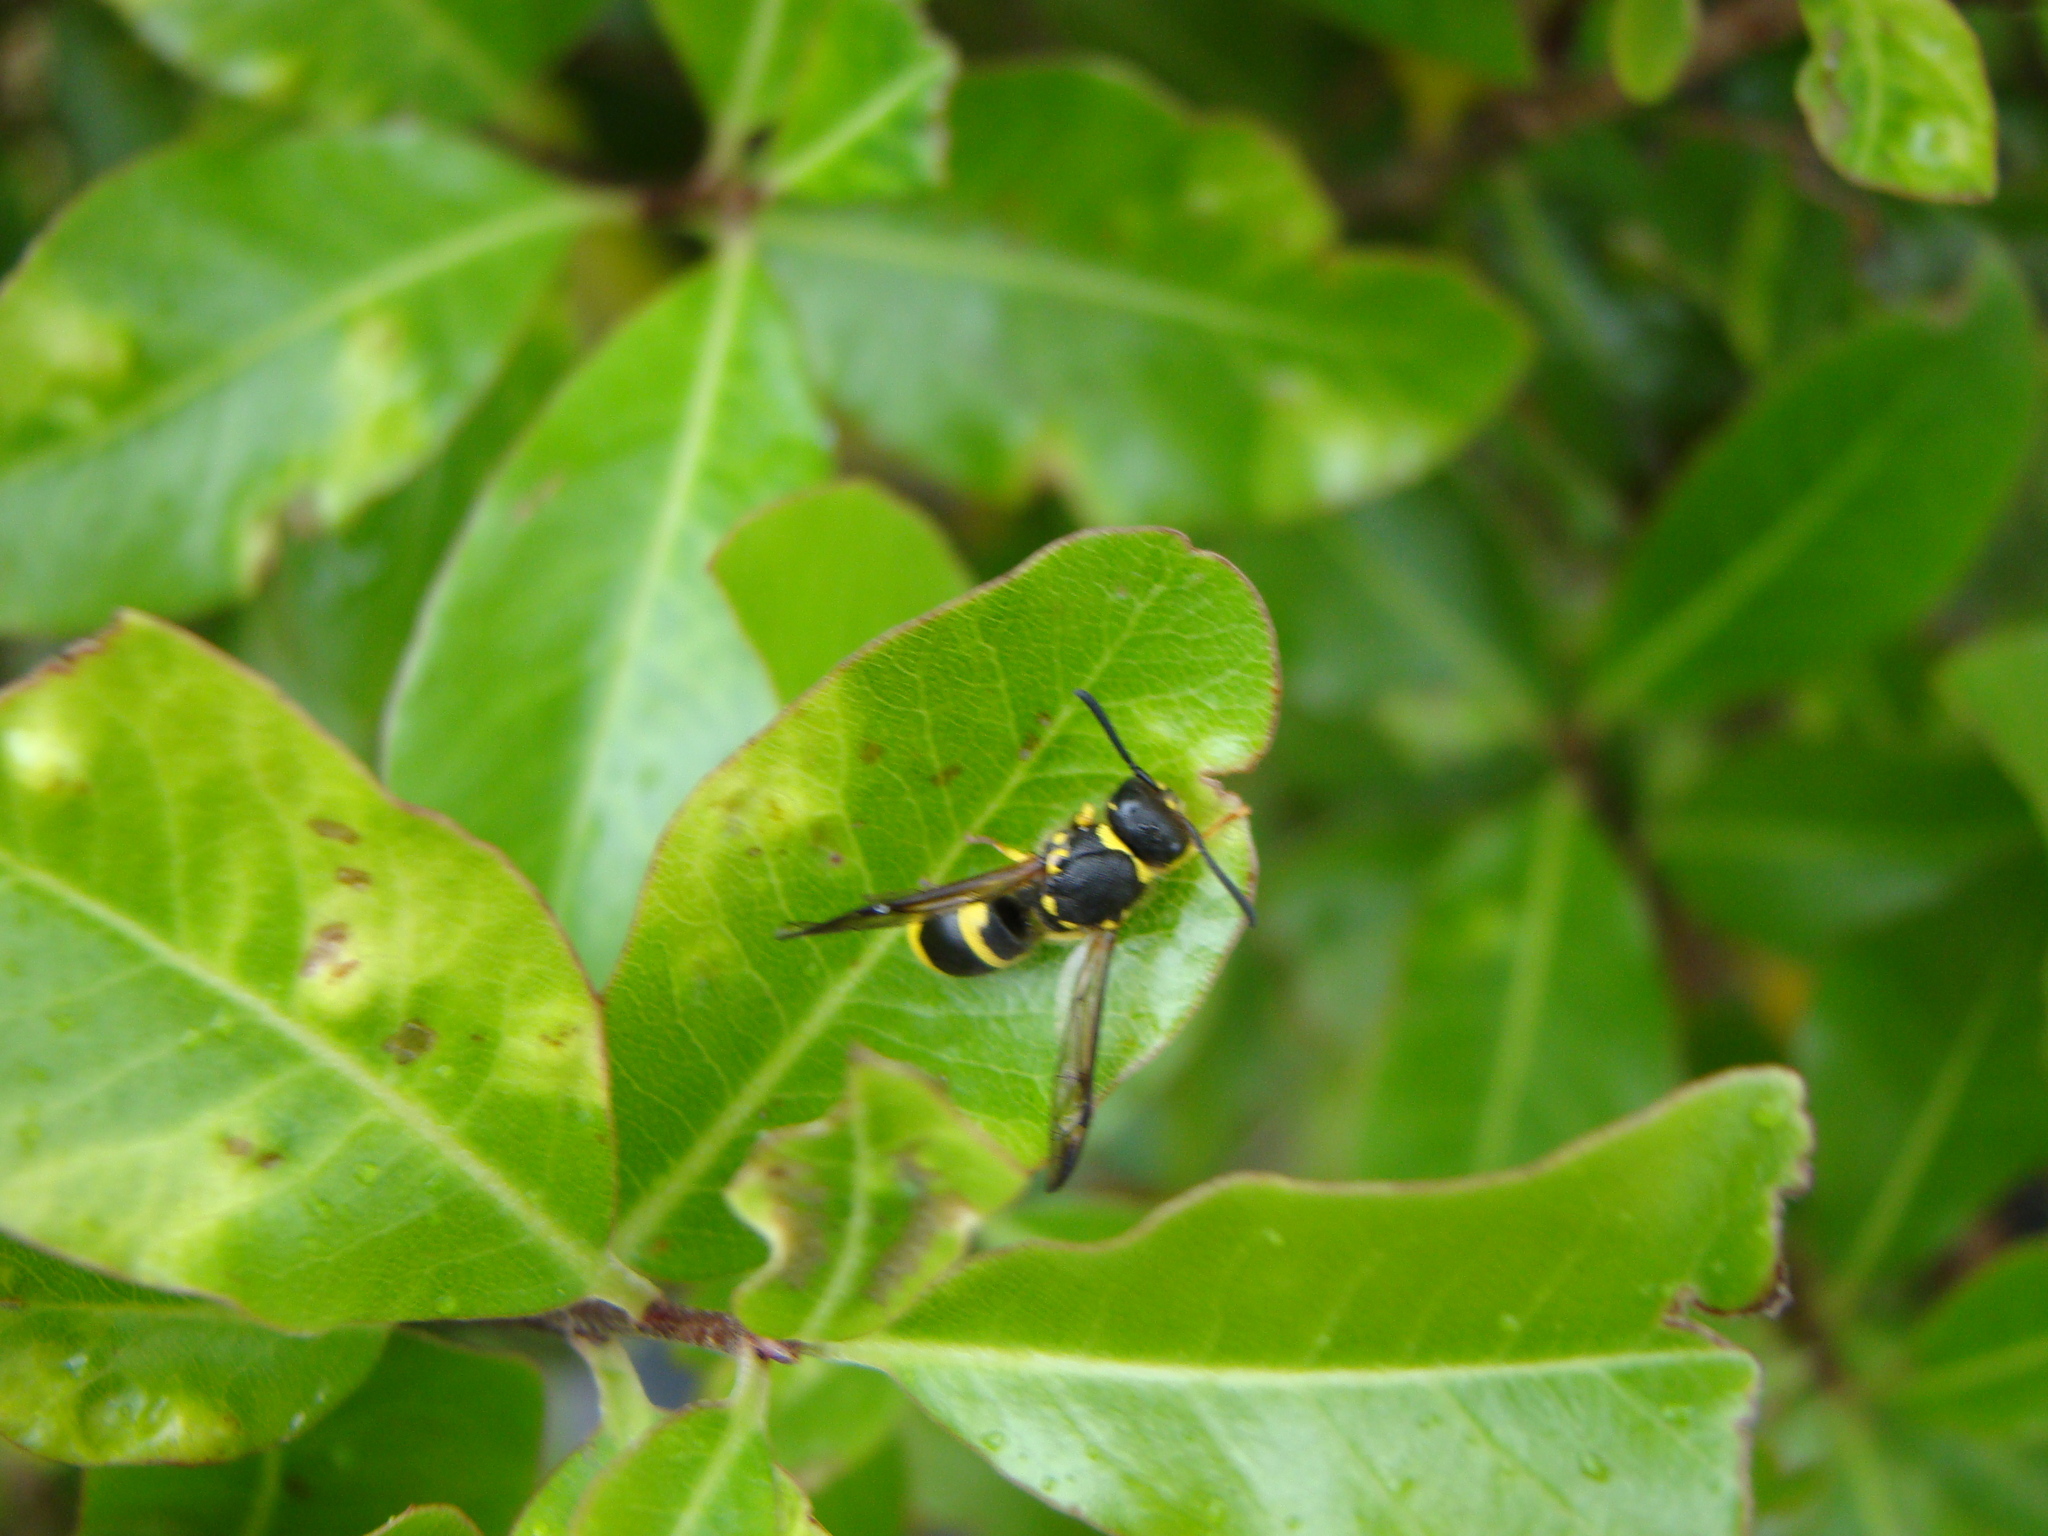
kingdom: Animalia
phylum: Arthropoda
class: Insecta
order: Hymenoptera
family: Vespidae
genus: Ancistrocerus
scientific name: Ancistrocerus gazella
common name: European tube wasp
